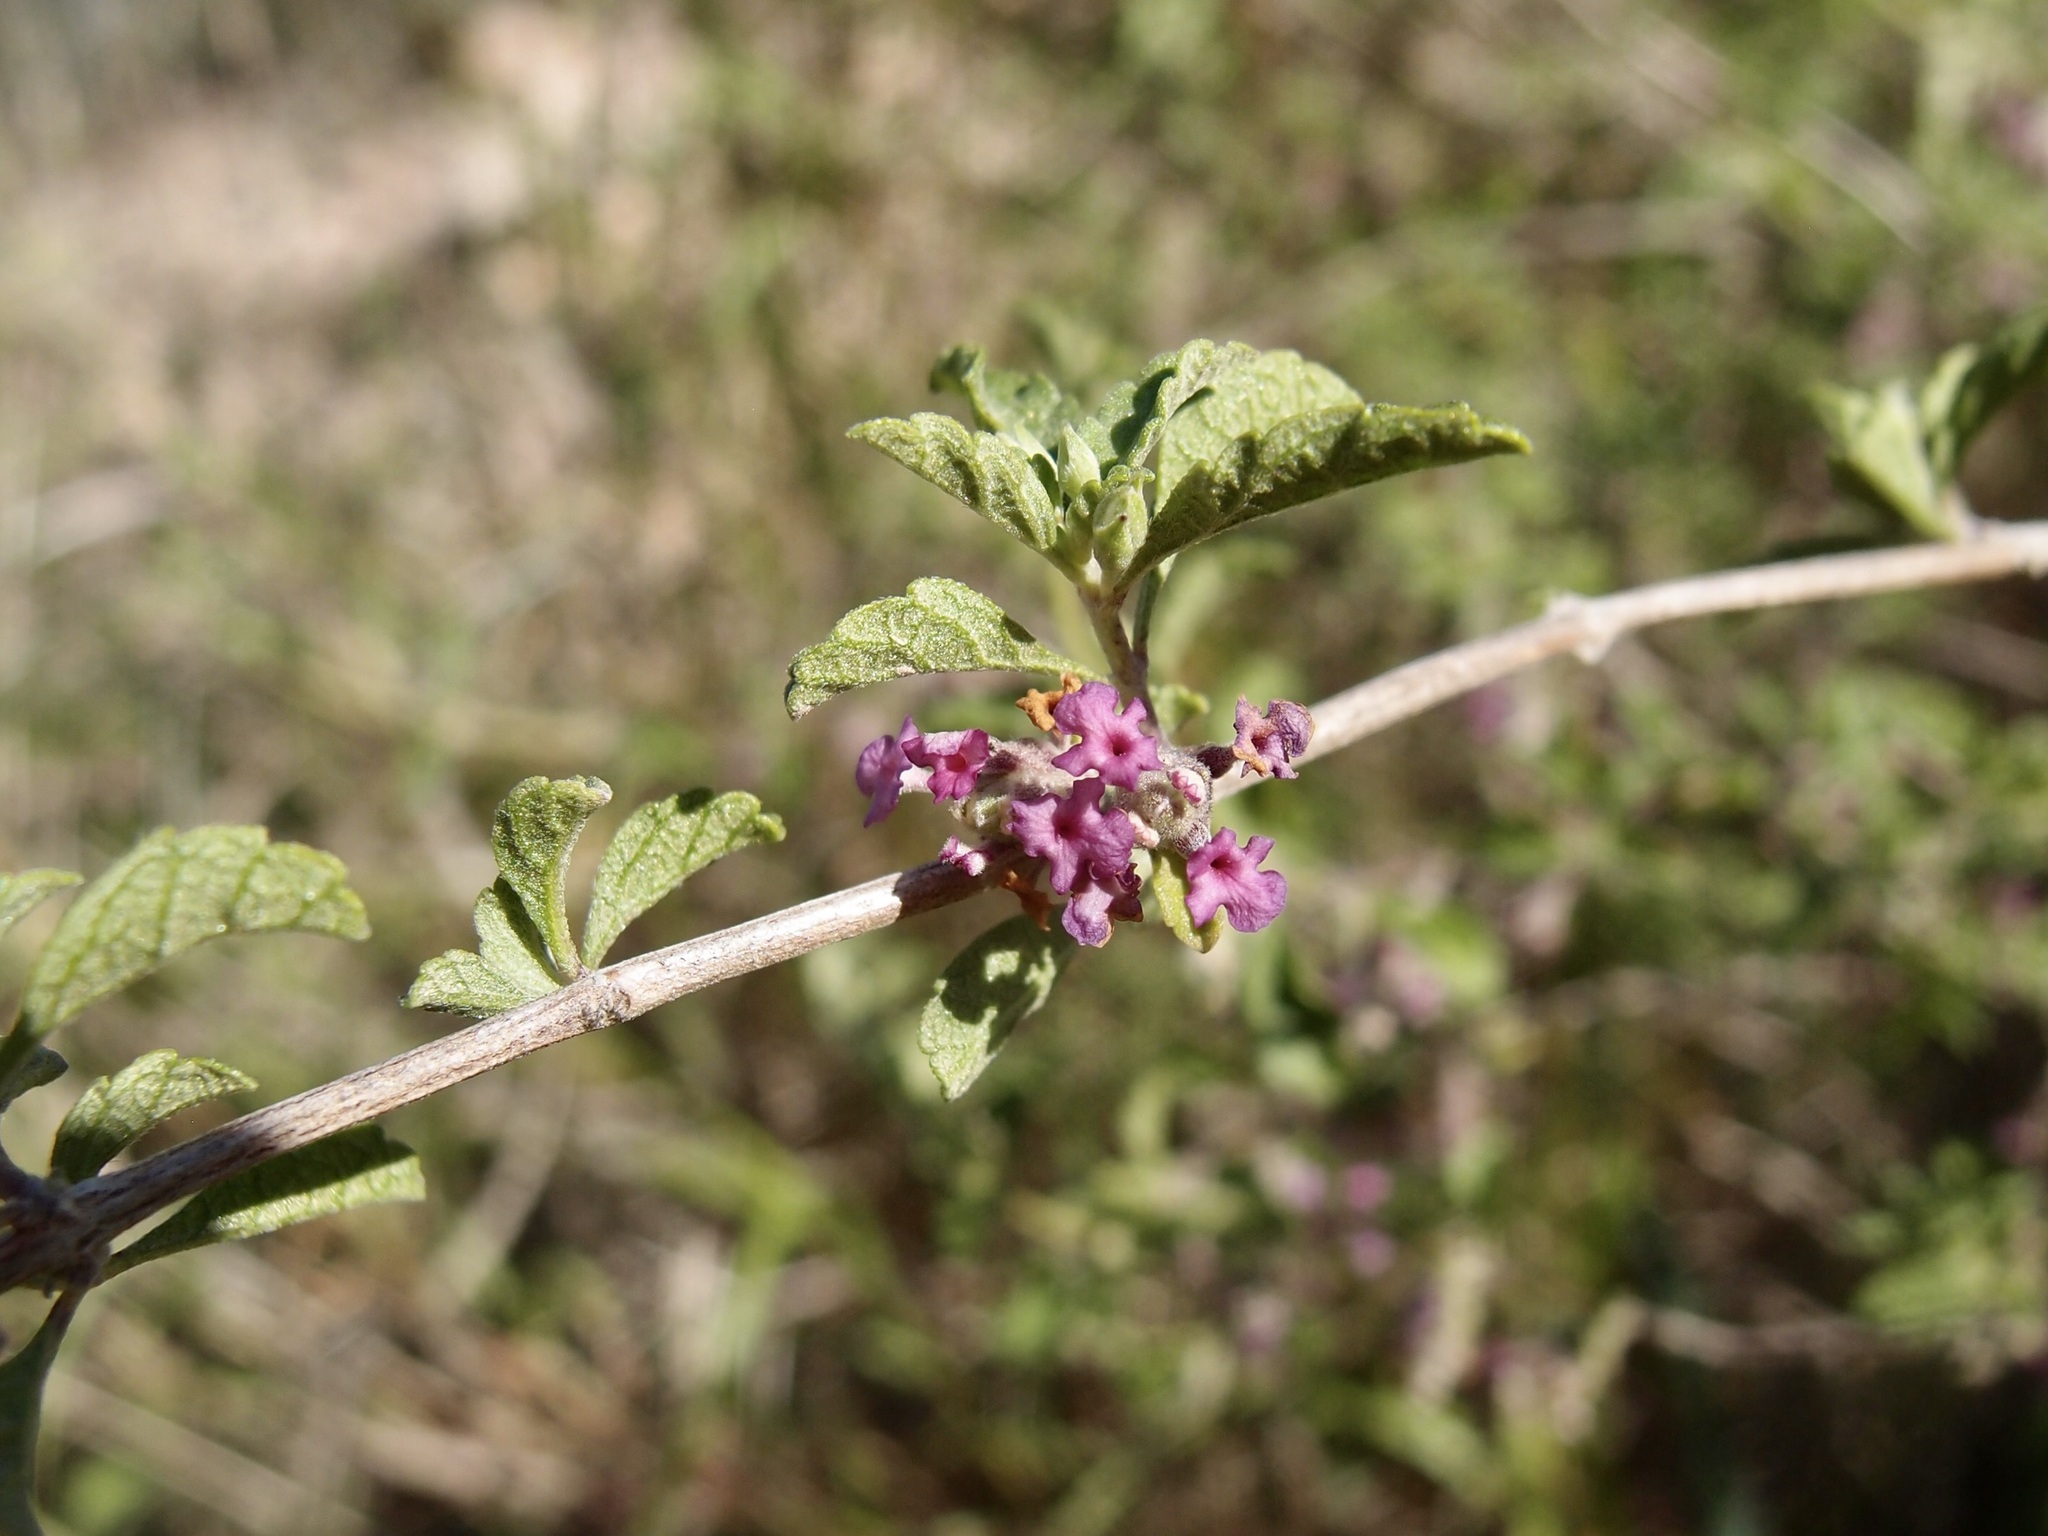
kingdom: Plantae
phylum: Tracheophyta
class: Magnoliopsida
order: Lamiales
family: Verbenaceae
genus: Lippia
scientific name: Lippia origanoides
